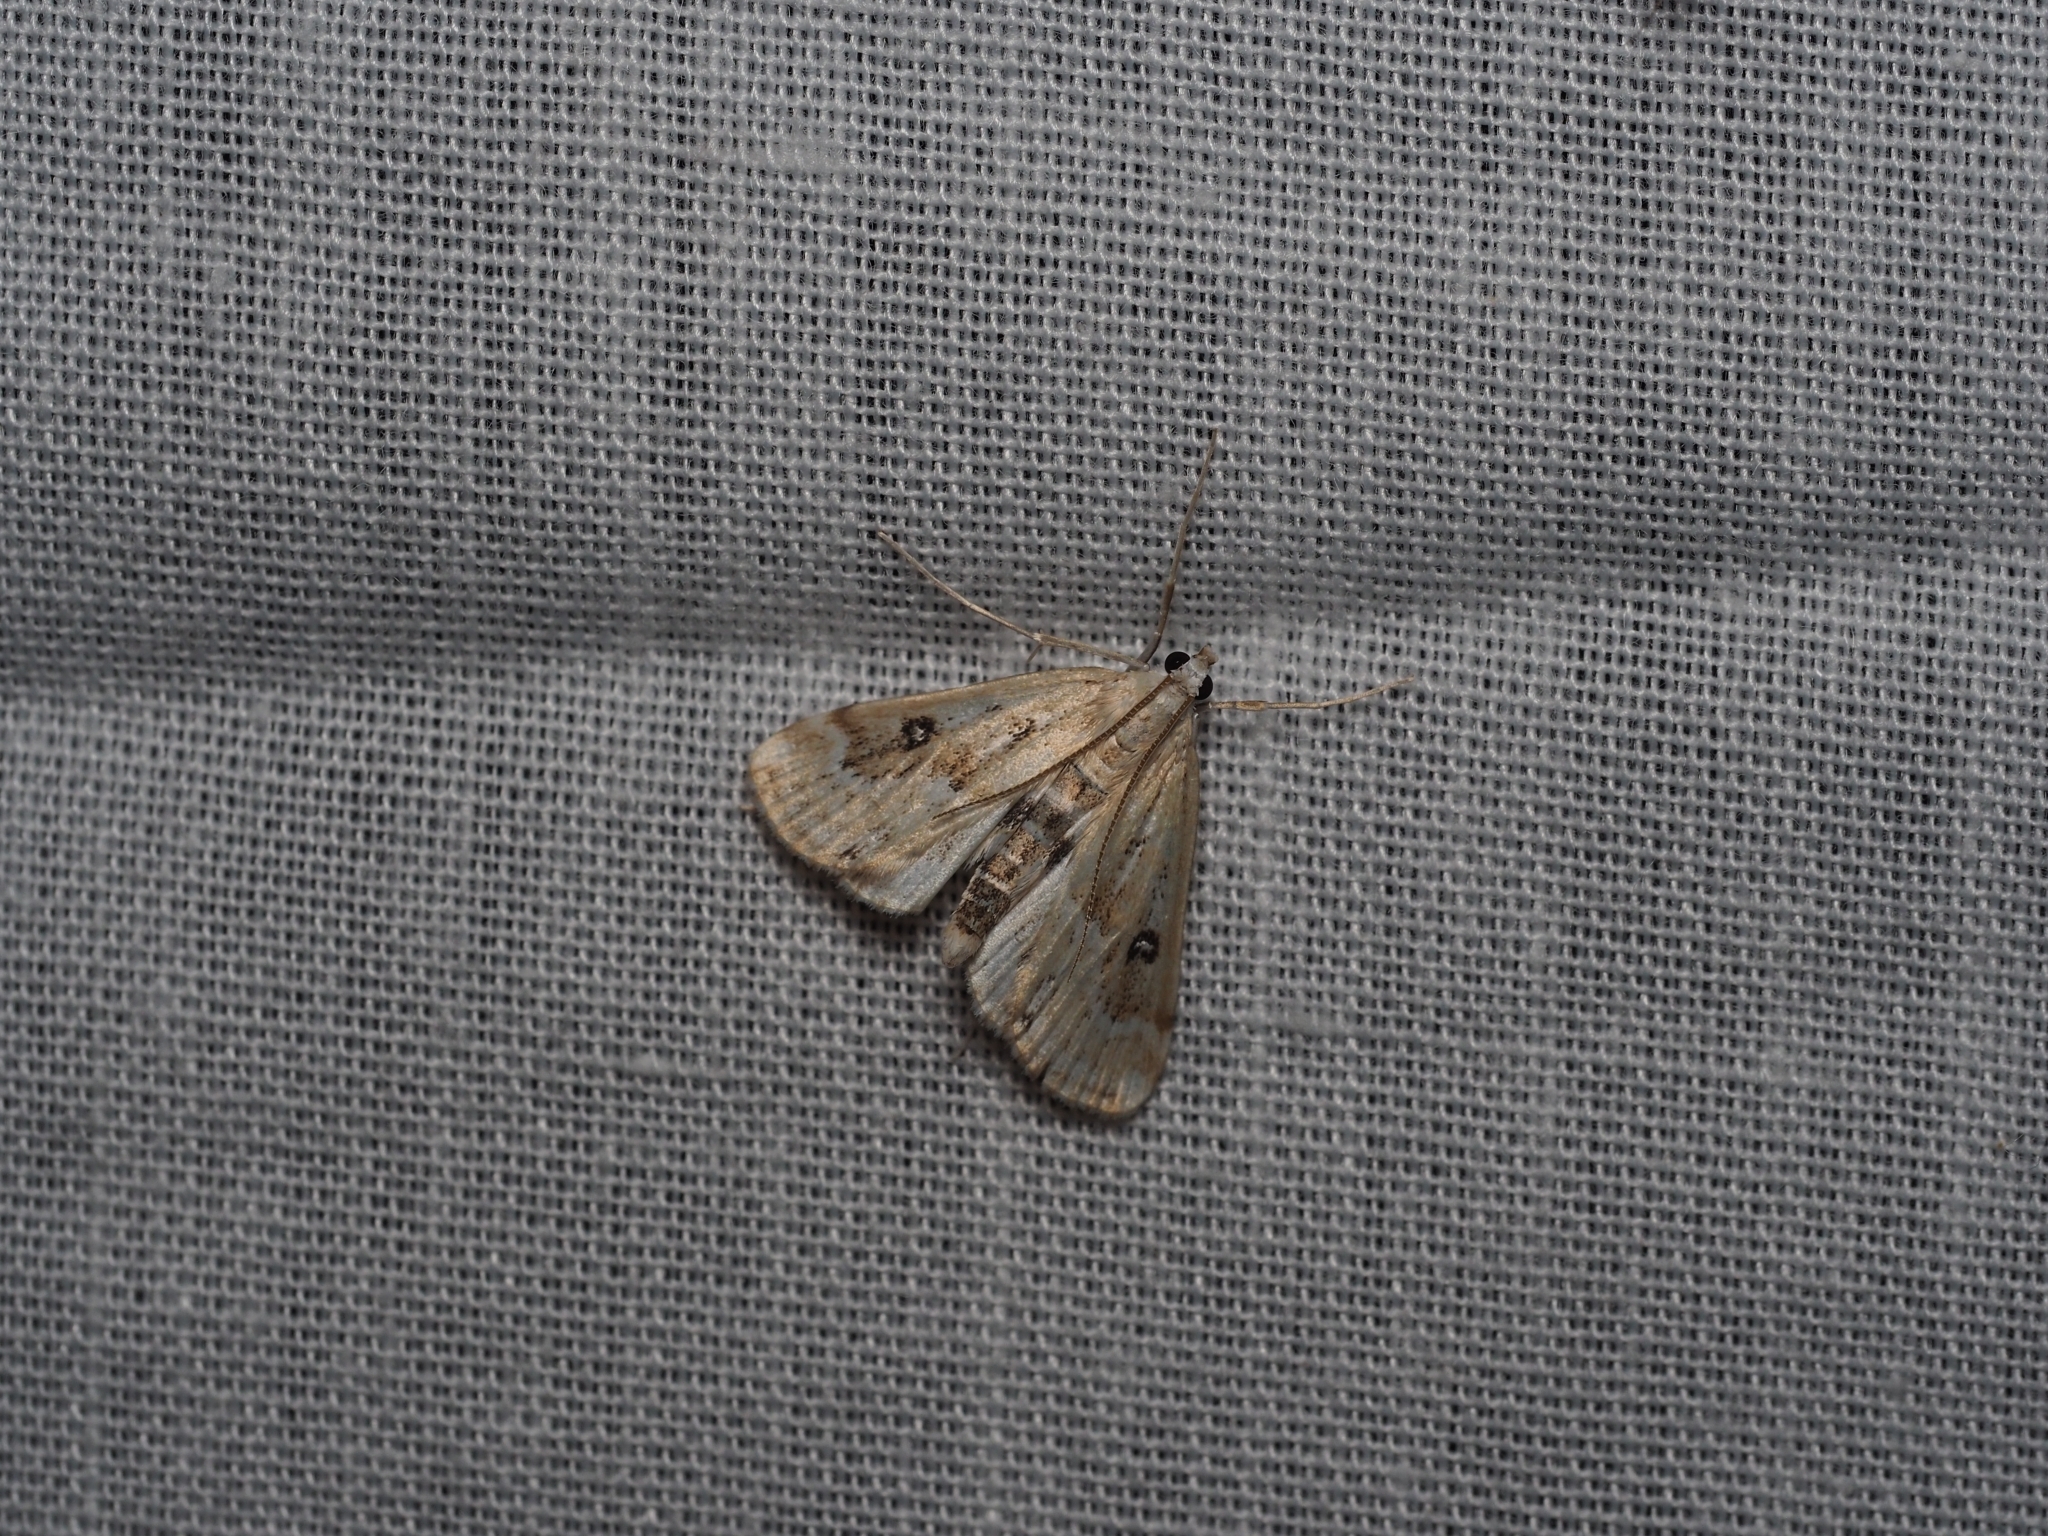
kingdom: Animalia
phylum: Arthropoda
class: Insecta
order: Lepidoptera
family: Crambidae
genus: Parapoynx
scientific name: Parapoynx stratiotata
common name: Ringed china-mark
